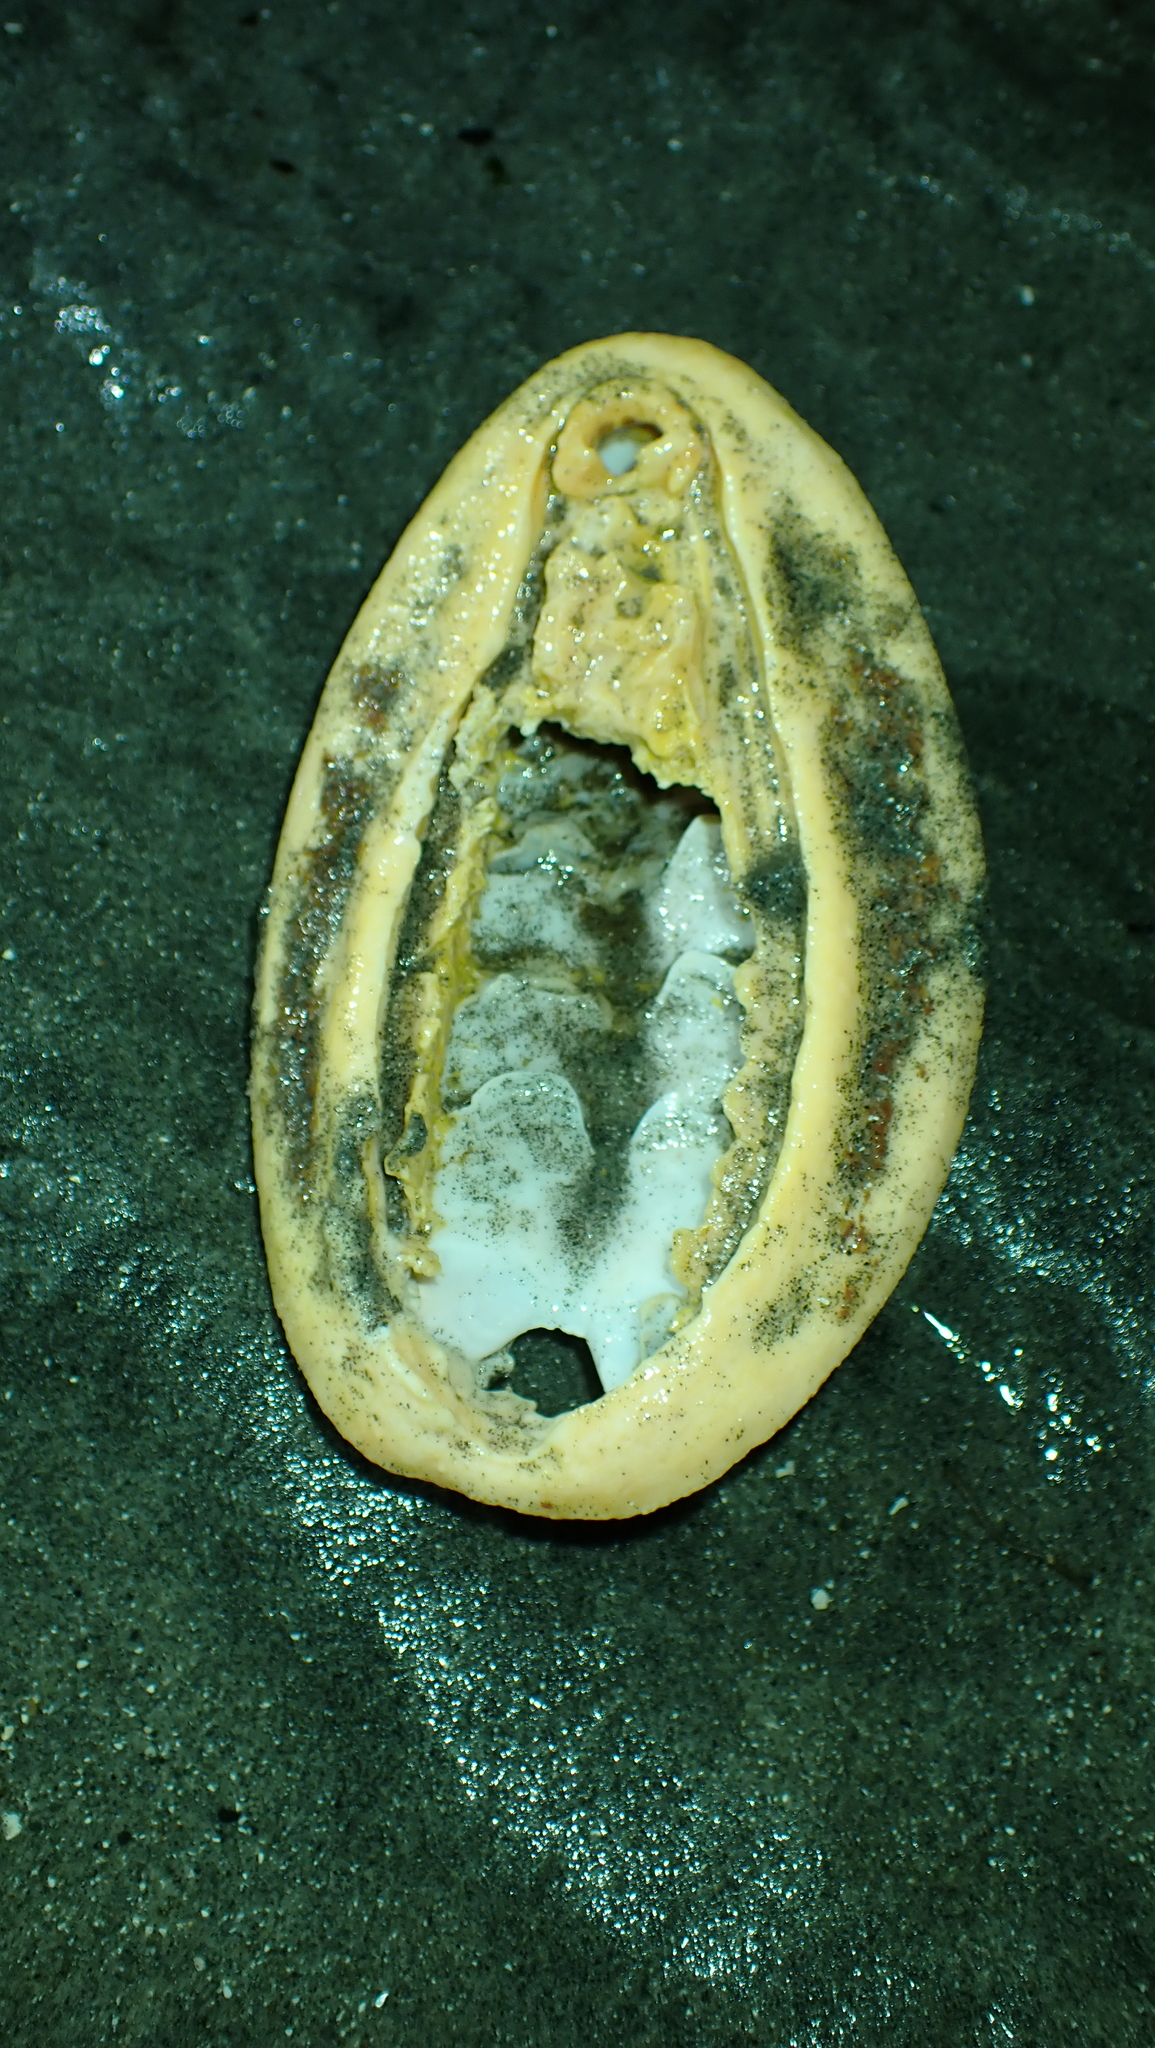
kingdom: Animalia
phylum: Mollusca
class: Polyplacophora
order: Chitonida
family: Acanthochitonidae
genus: Cryptochiton
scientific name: Cryptochiton stelleri
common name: Giant pacific chiton
